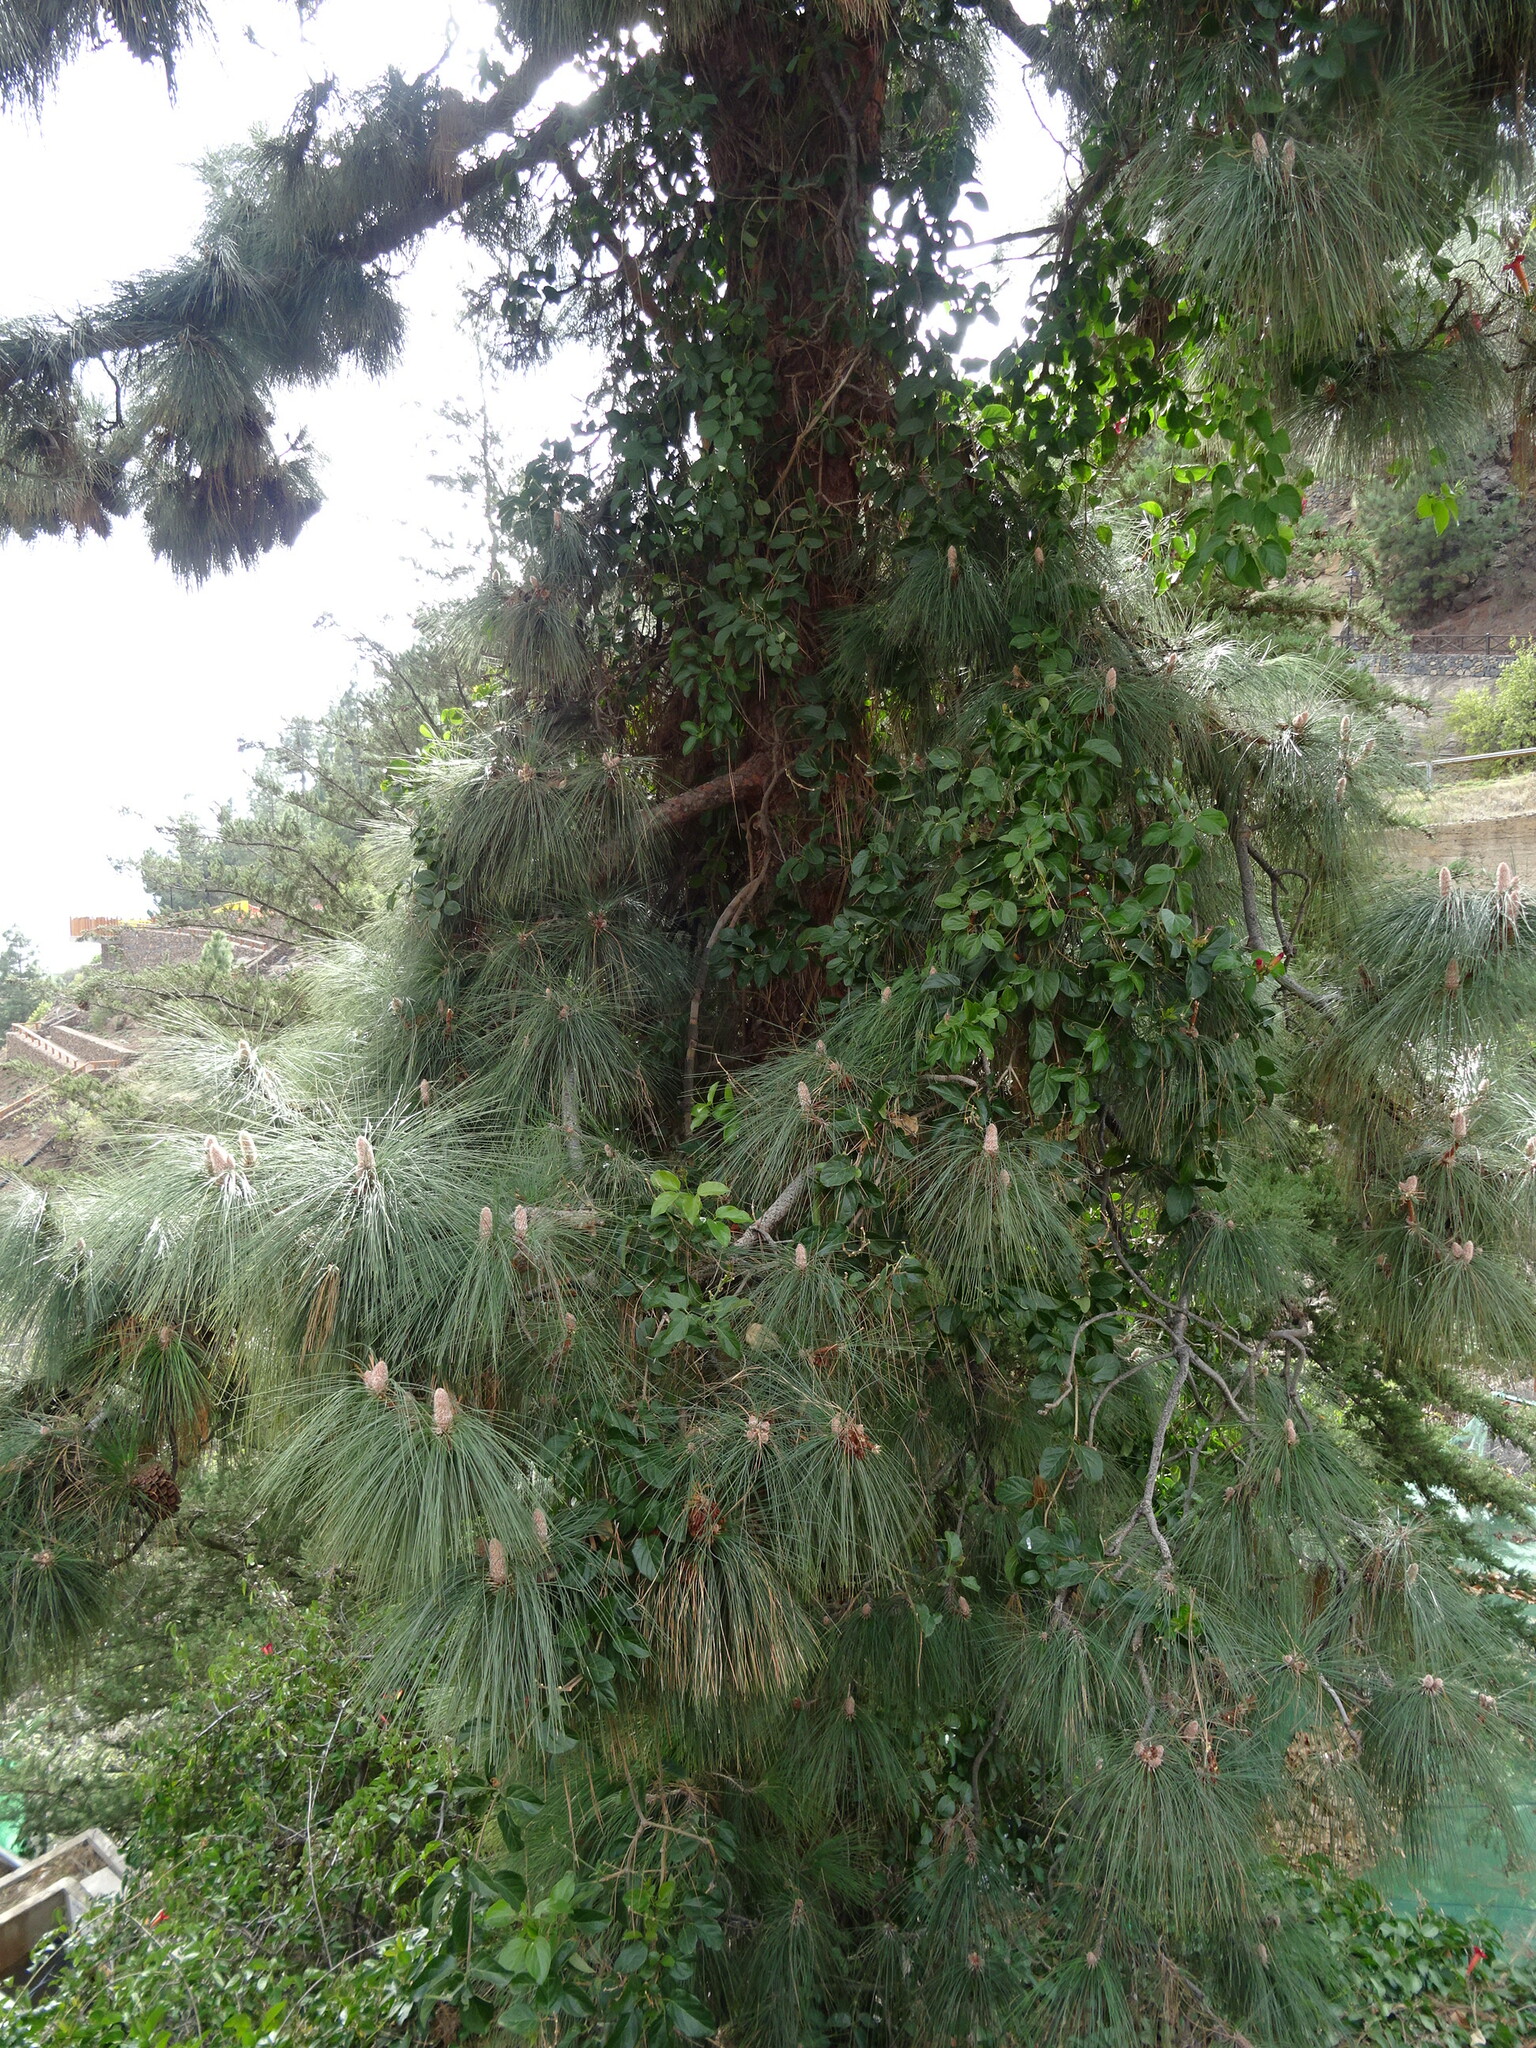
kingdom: Plantae
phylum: Tracheophyta
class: Pinopsida
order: Pinales
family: Pinaceae
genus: Pinus
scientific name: Pinus canariensis
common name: Canary islands pine
